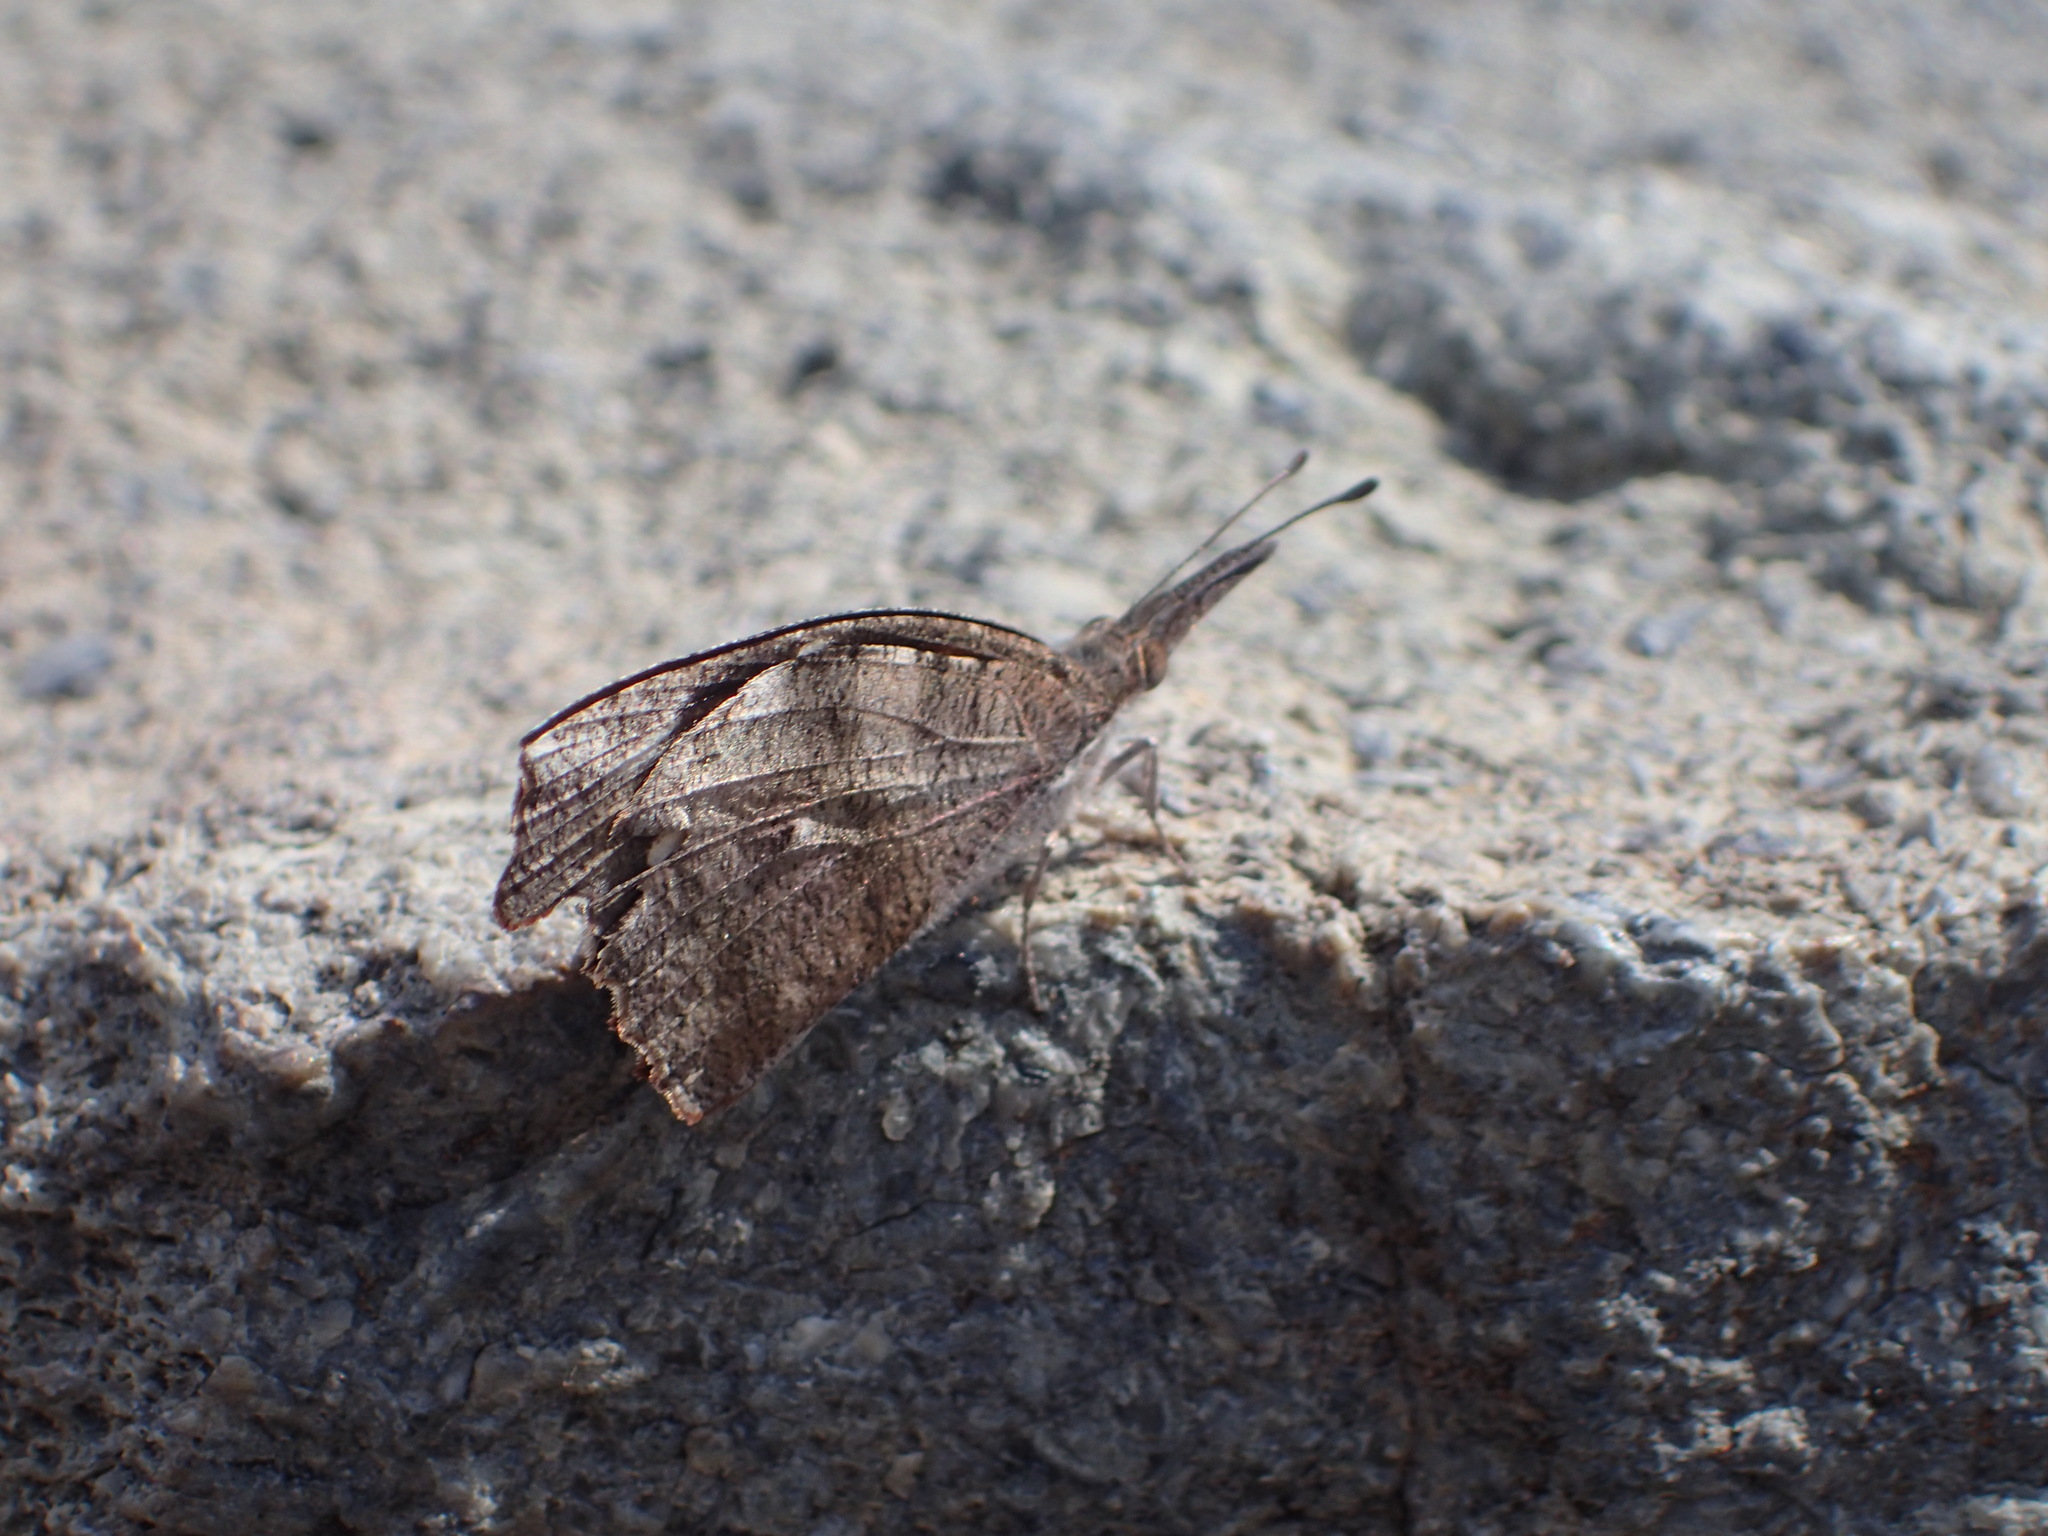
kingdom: Animalia
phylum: Arthropoda
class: Insecta
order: Lepidoptera
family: Nymphalidae
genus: Libytheana
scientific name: Libytheana carinenta
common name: American snout
